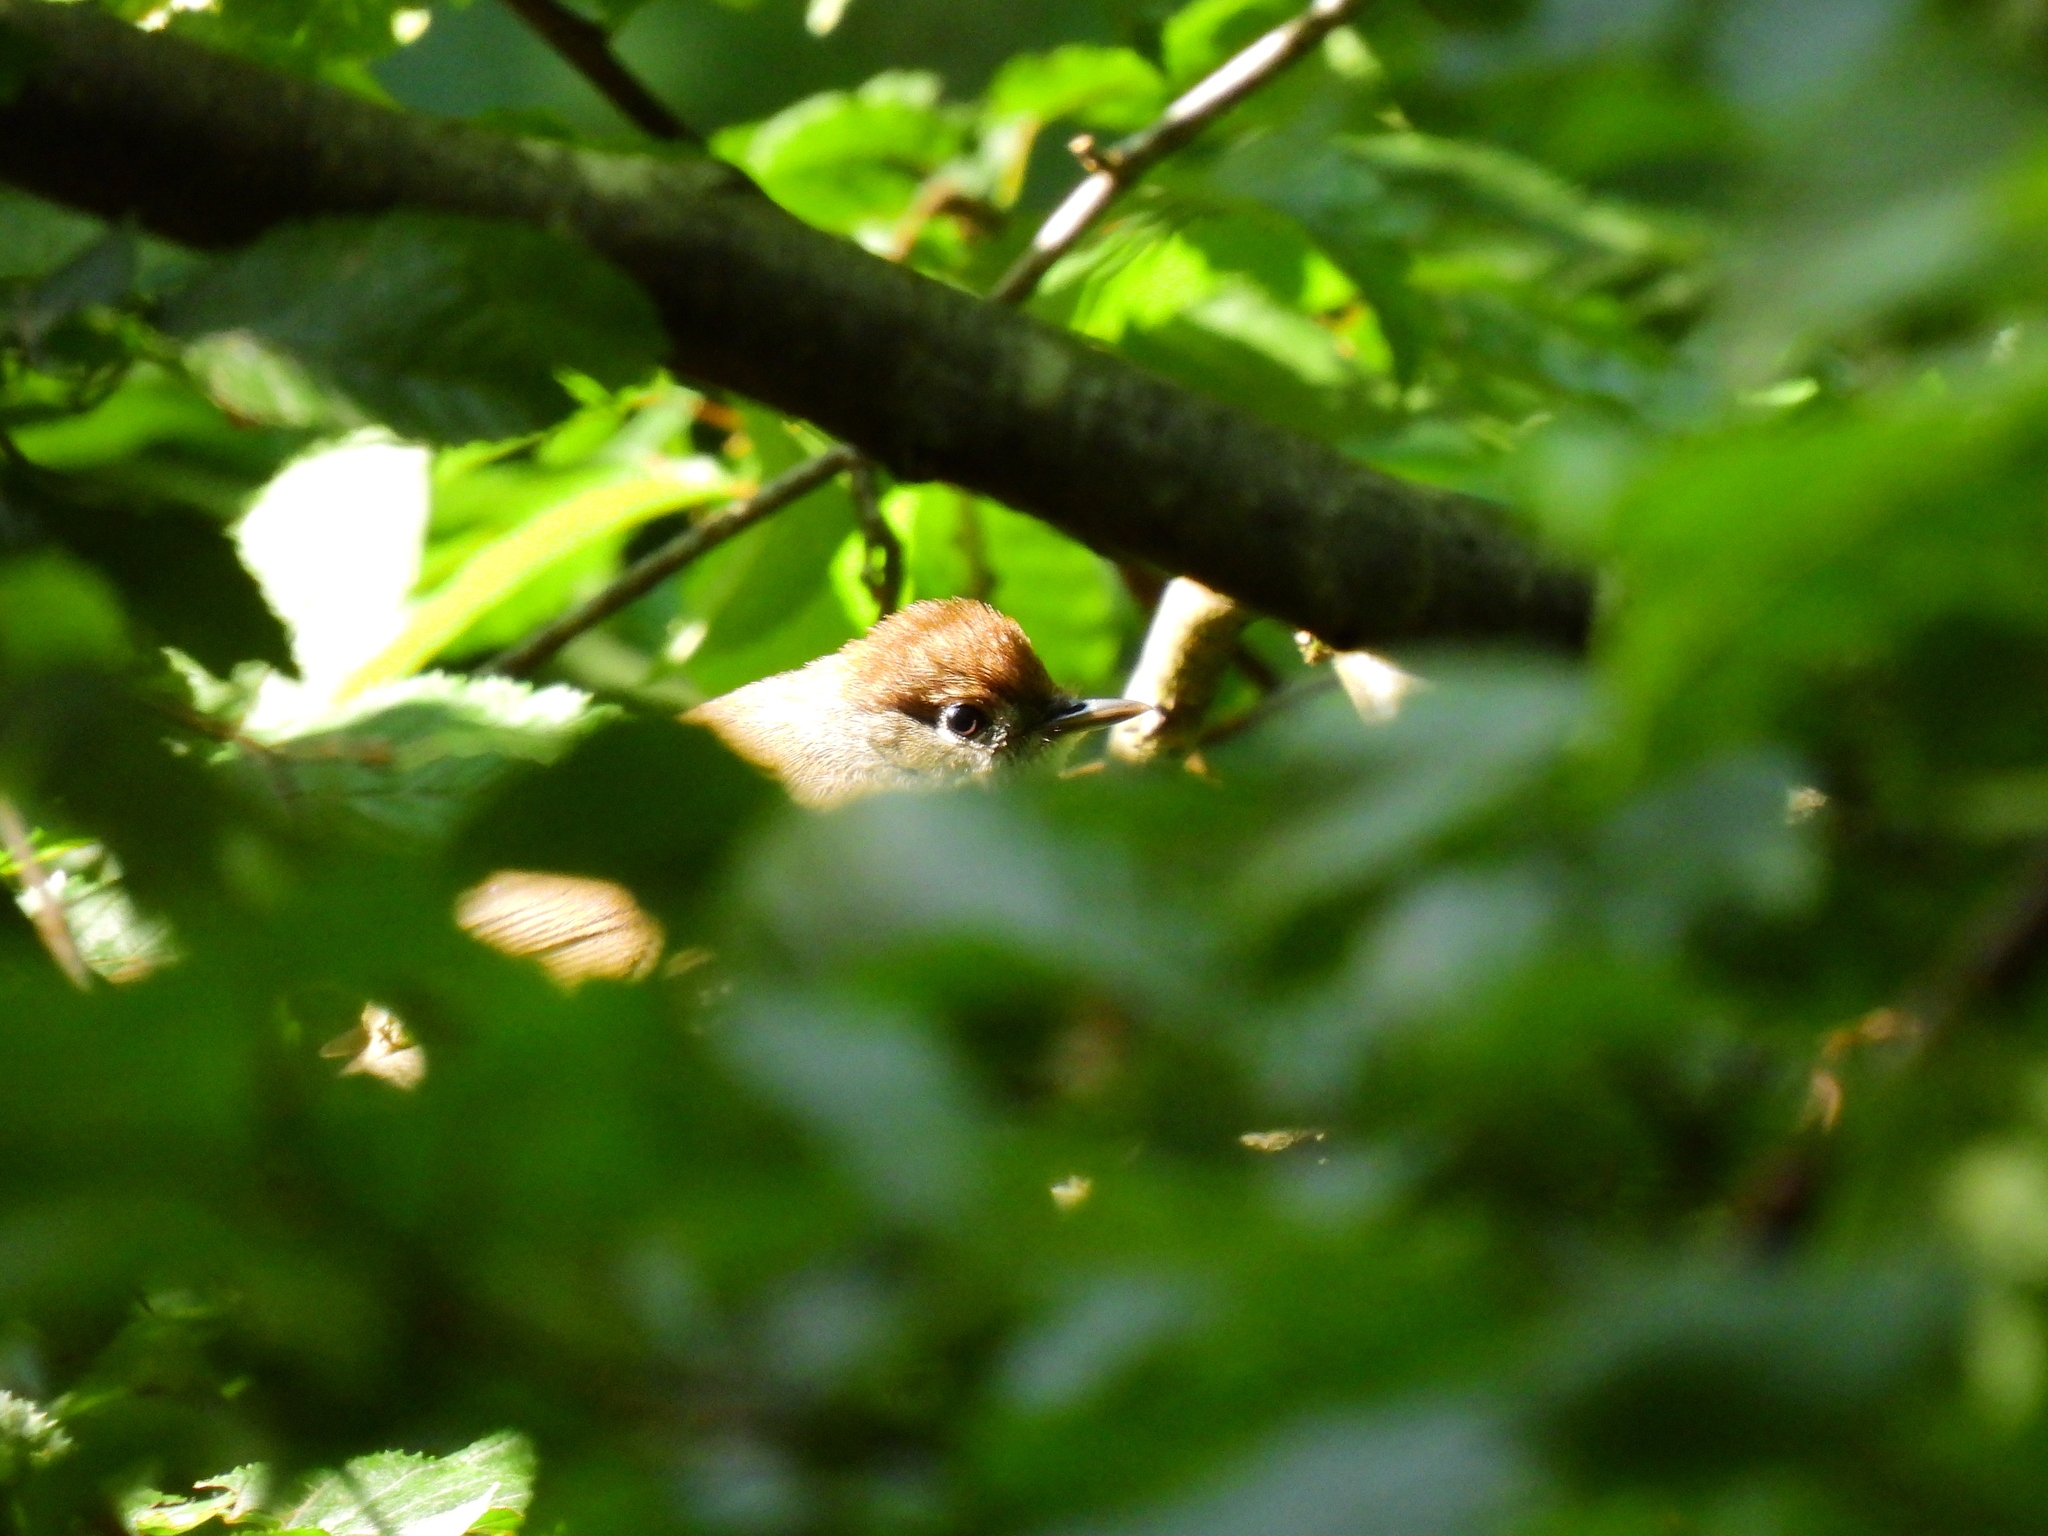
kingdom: Animalia
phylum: Chordata
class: Aves
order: Passeriformes
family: Sylviidae
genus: Sylvia
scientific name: Sylvia atricapilla
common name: Eurasian blackcap
